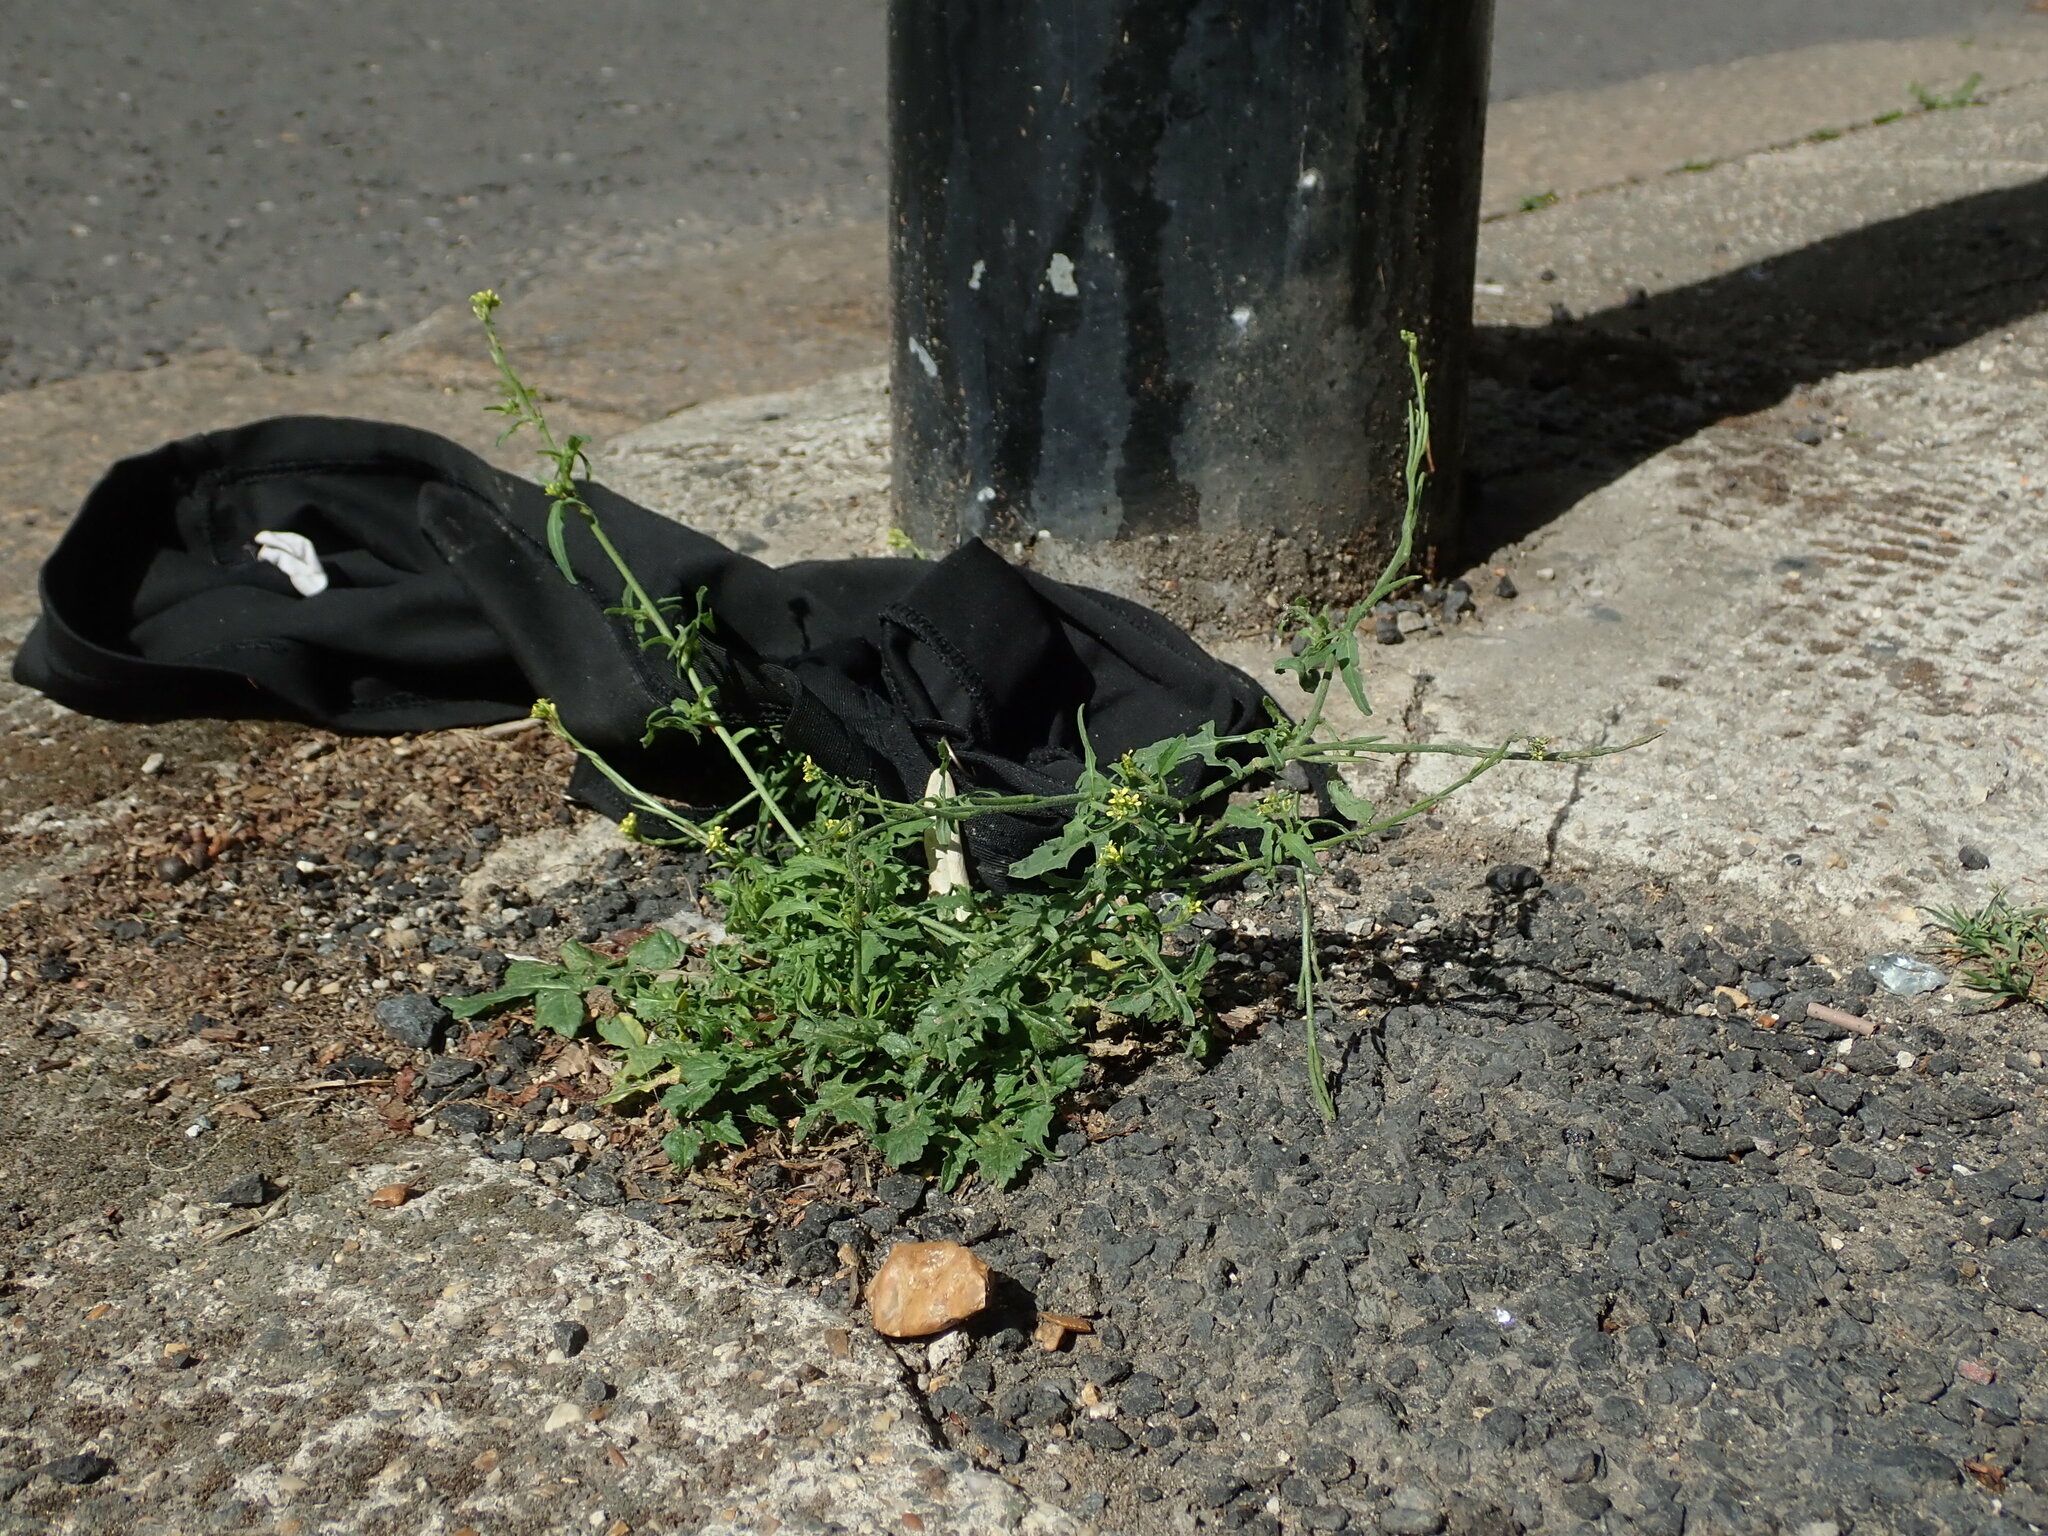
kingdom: Plantae
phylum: Tracheophyta
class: Magnoliopsida
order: Brassicales
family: Brassicaceae
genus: Sisymbrium
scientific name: Sisymbrium officinale
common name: Hedge mustard
